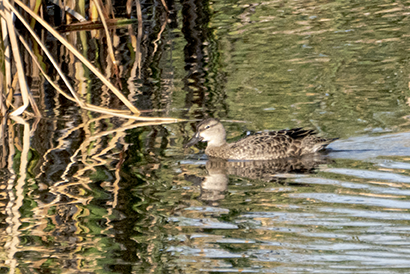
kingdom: Animalia
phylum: Chordata
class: Aves
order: Anseriformes
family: Anatidae
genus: Spatula
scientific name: Spatula discors
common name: Blue-winged teal
